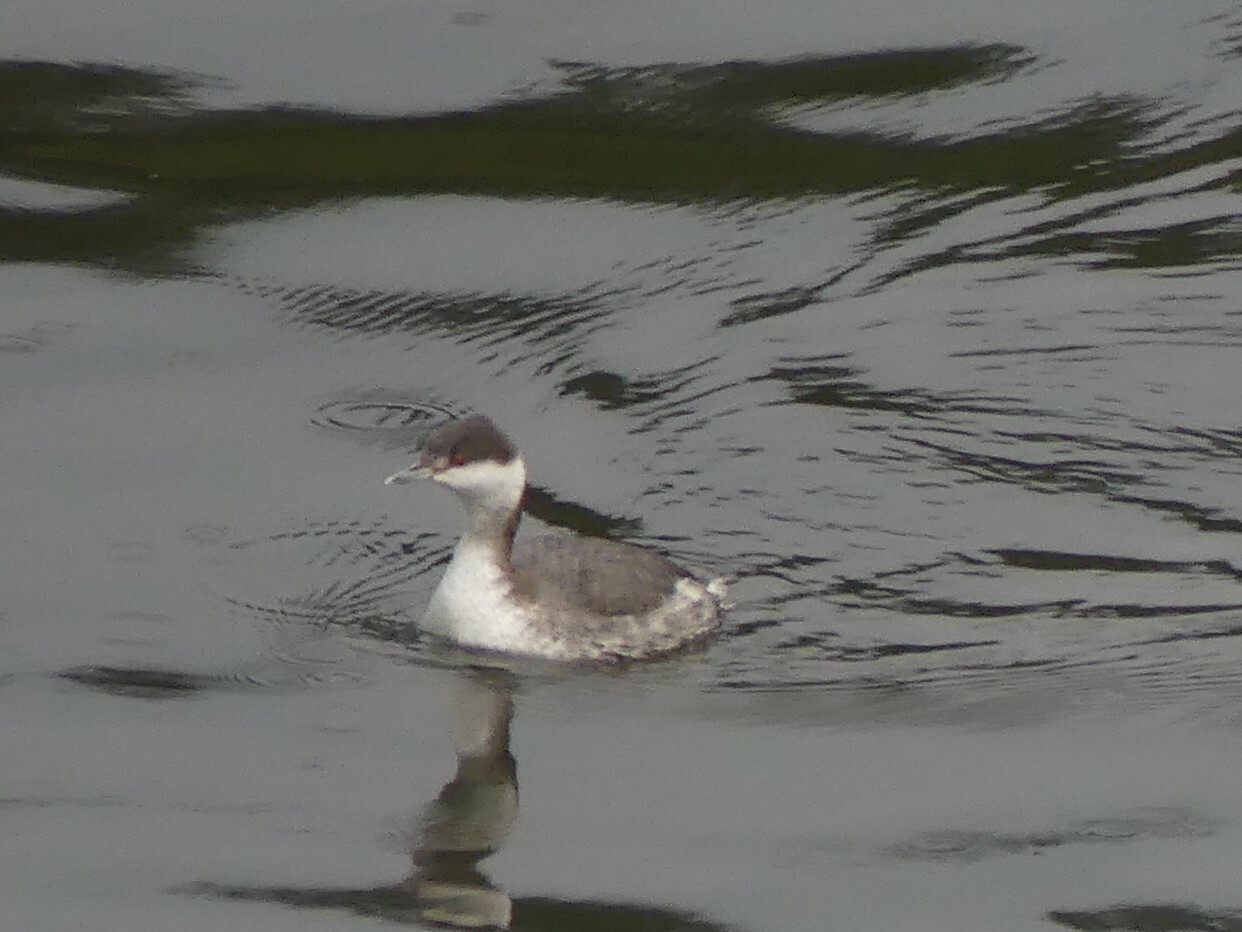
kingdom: Animalia
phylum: Chordata
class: Aves
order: Podicipediformes
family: Podicipedidae
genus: Podiceps
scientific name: Podiceps auritus
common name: Horned grebe
